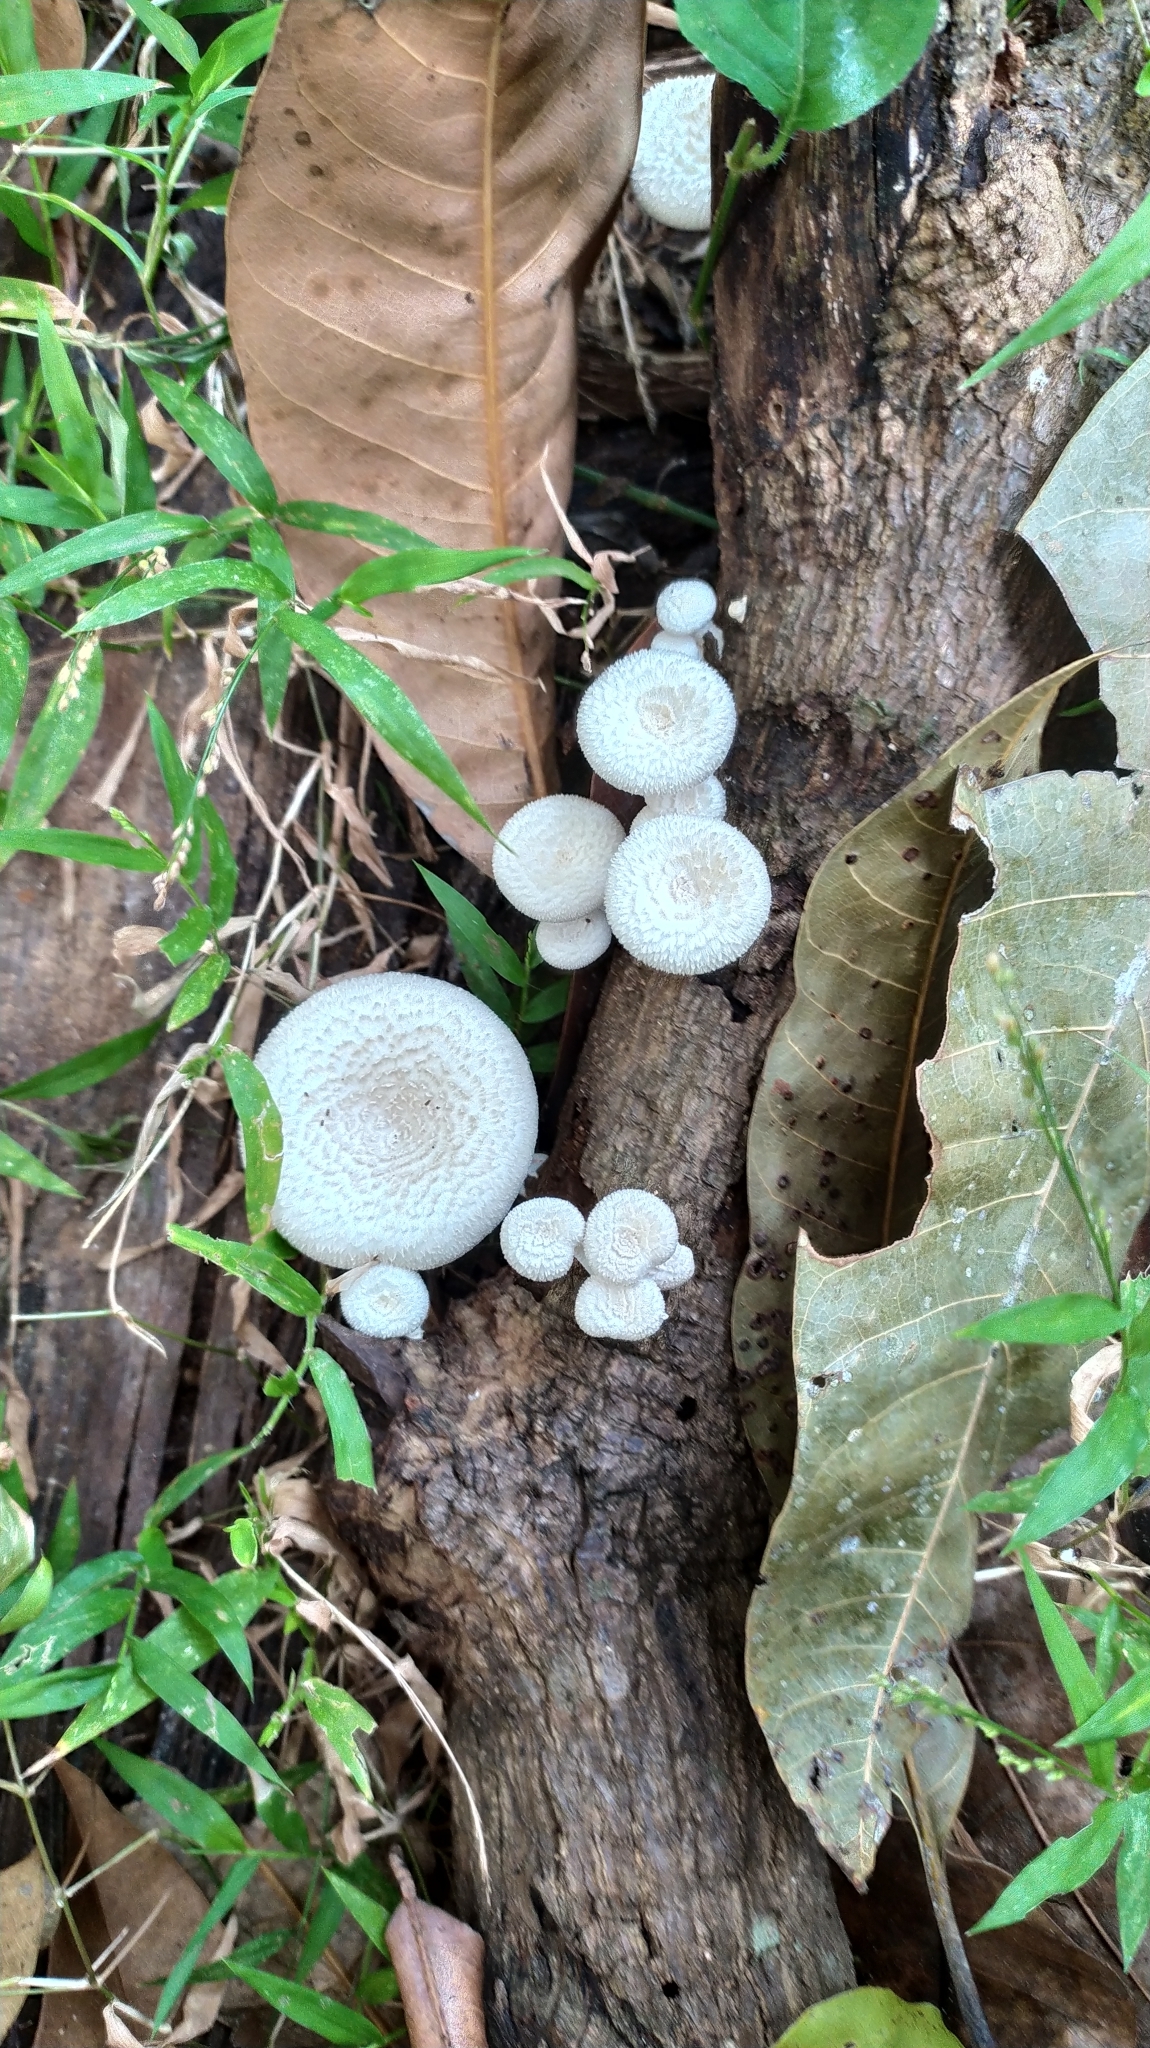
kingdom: Fungi
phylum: Basidiomycota
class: Agaricomycetes
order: Polyporales
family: Polyporaceae
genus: Lentinus
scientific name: Lentinus squarrosulus
